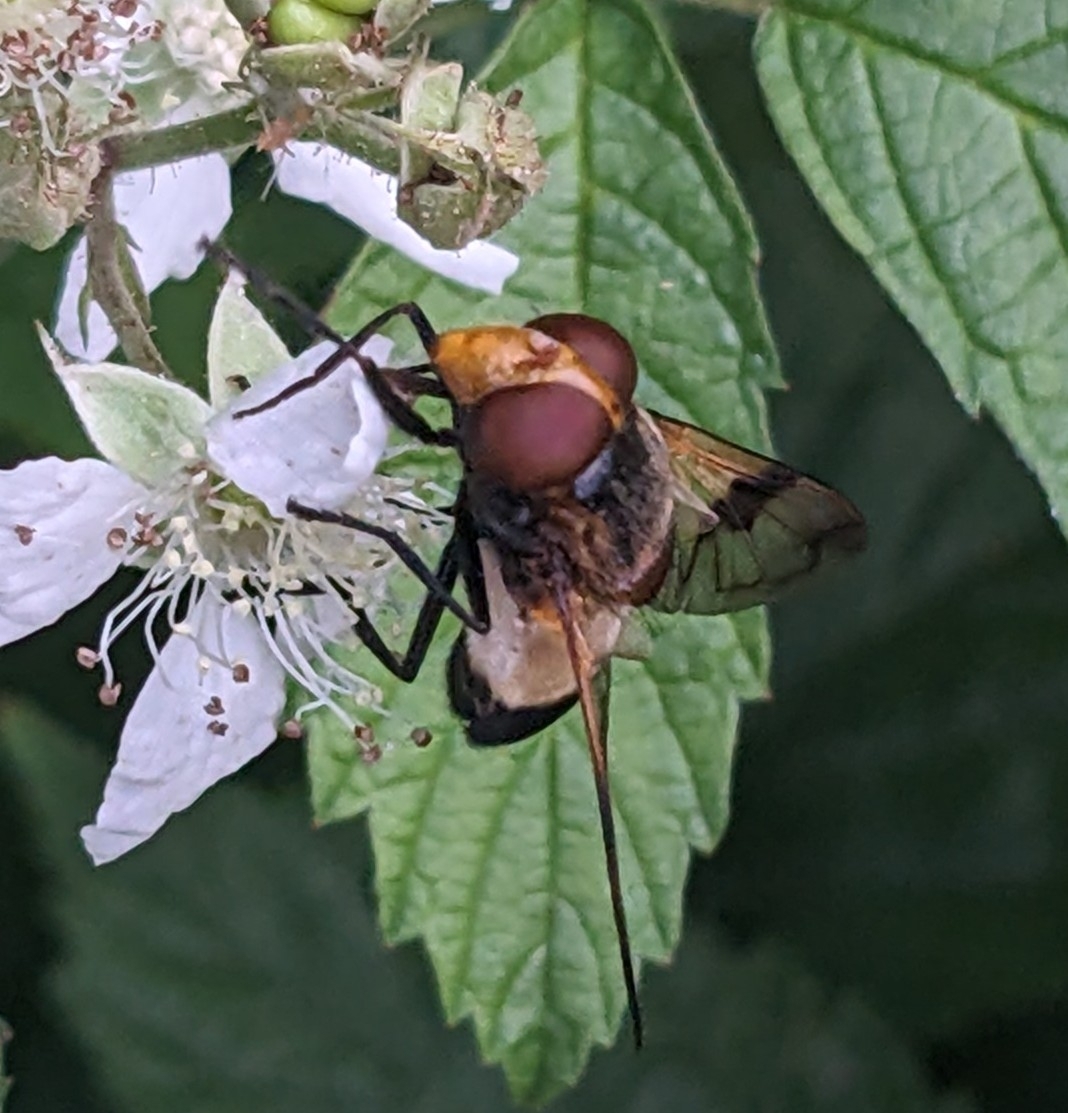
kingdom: Animalia
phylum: Arthropoda
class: Insecta
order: Diptera
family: Syrphidae
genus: Volucella
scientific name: Volucella pellucens
